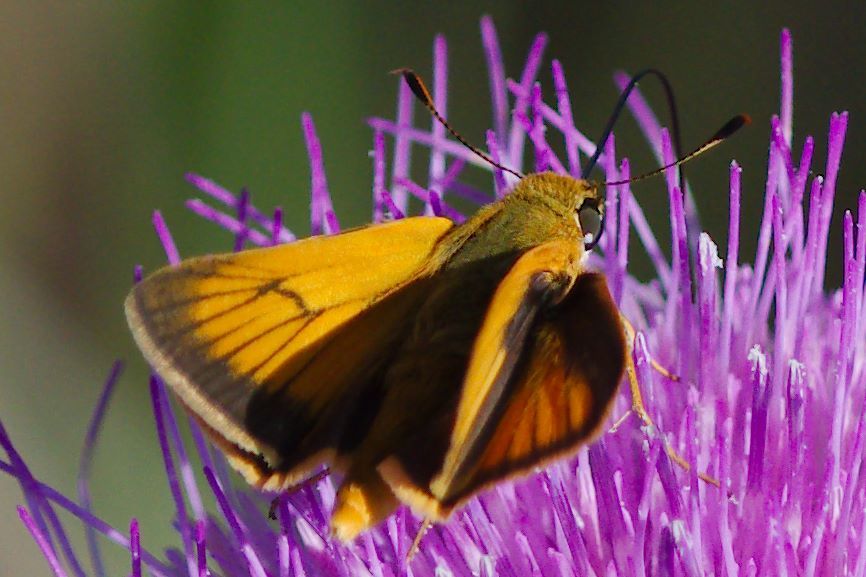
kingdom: Animalia
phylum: Arthropoda
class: Insecta
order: Lepidoptera
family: Hesperiidae
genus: Atrytone
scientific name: Atrytone delaware
